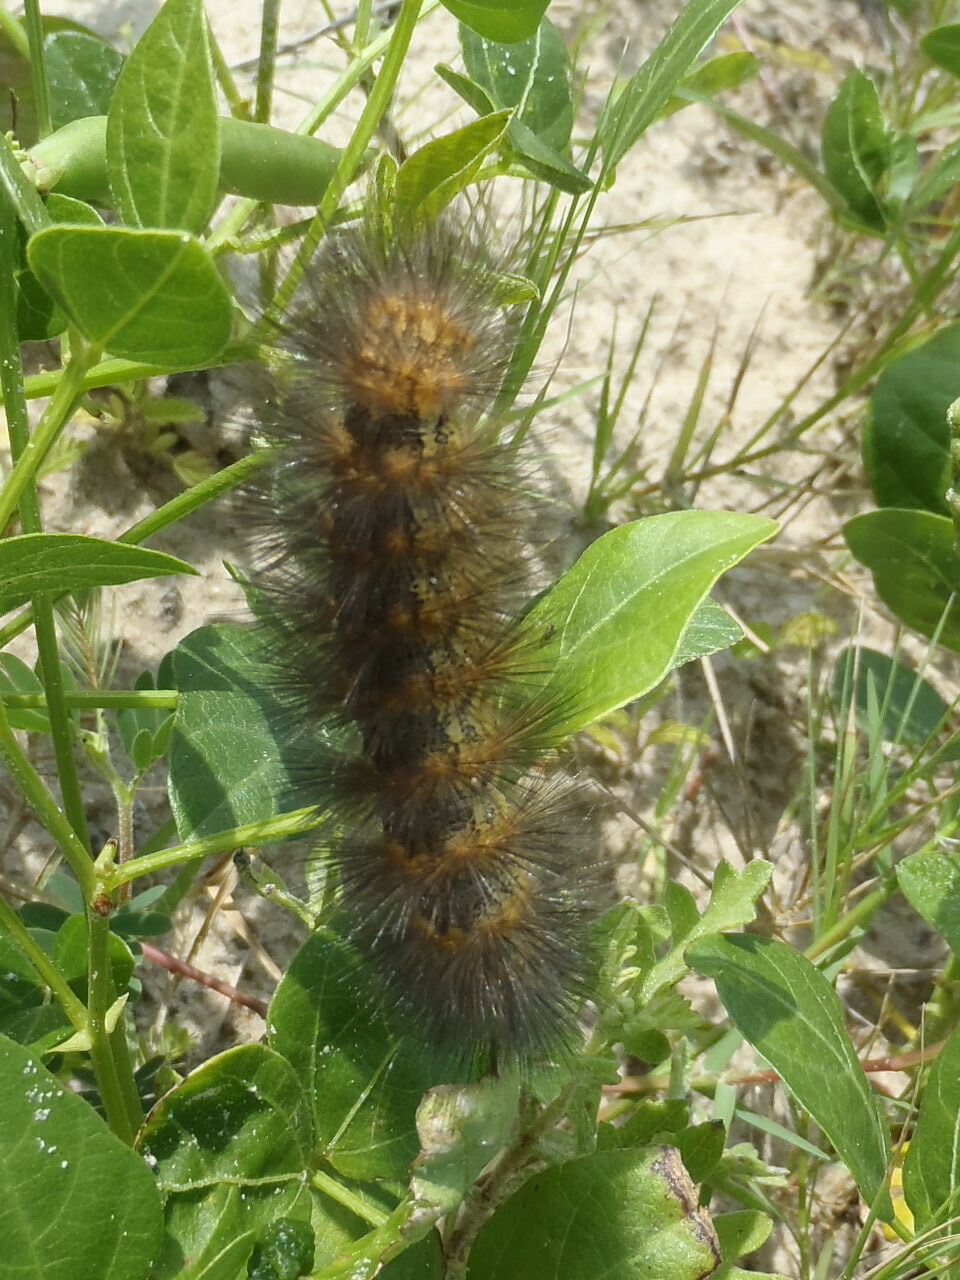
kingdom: Animalia
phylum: Arthropoda
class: Insecta
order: Lepidoptera
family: Erebidae
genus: Estigmene
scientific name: Estigmene acrea
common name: Salt marsh moth
